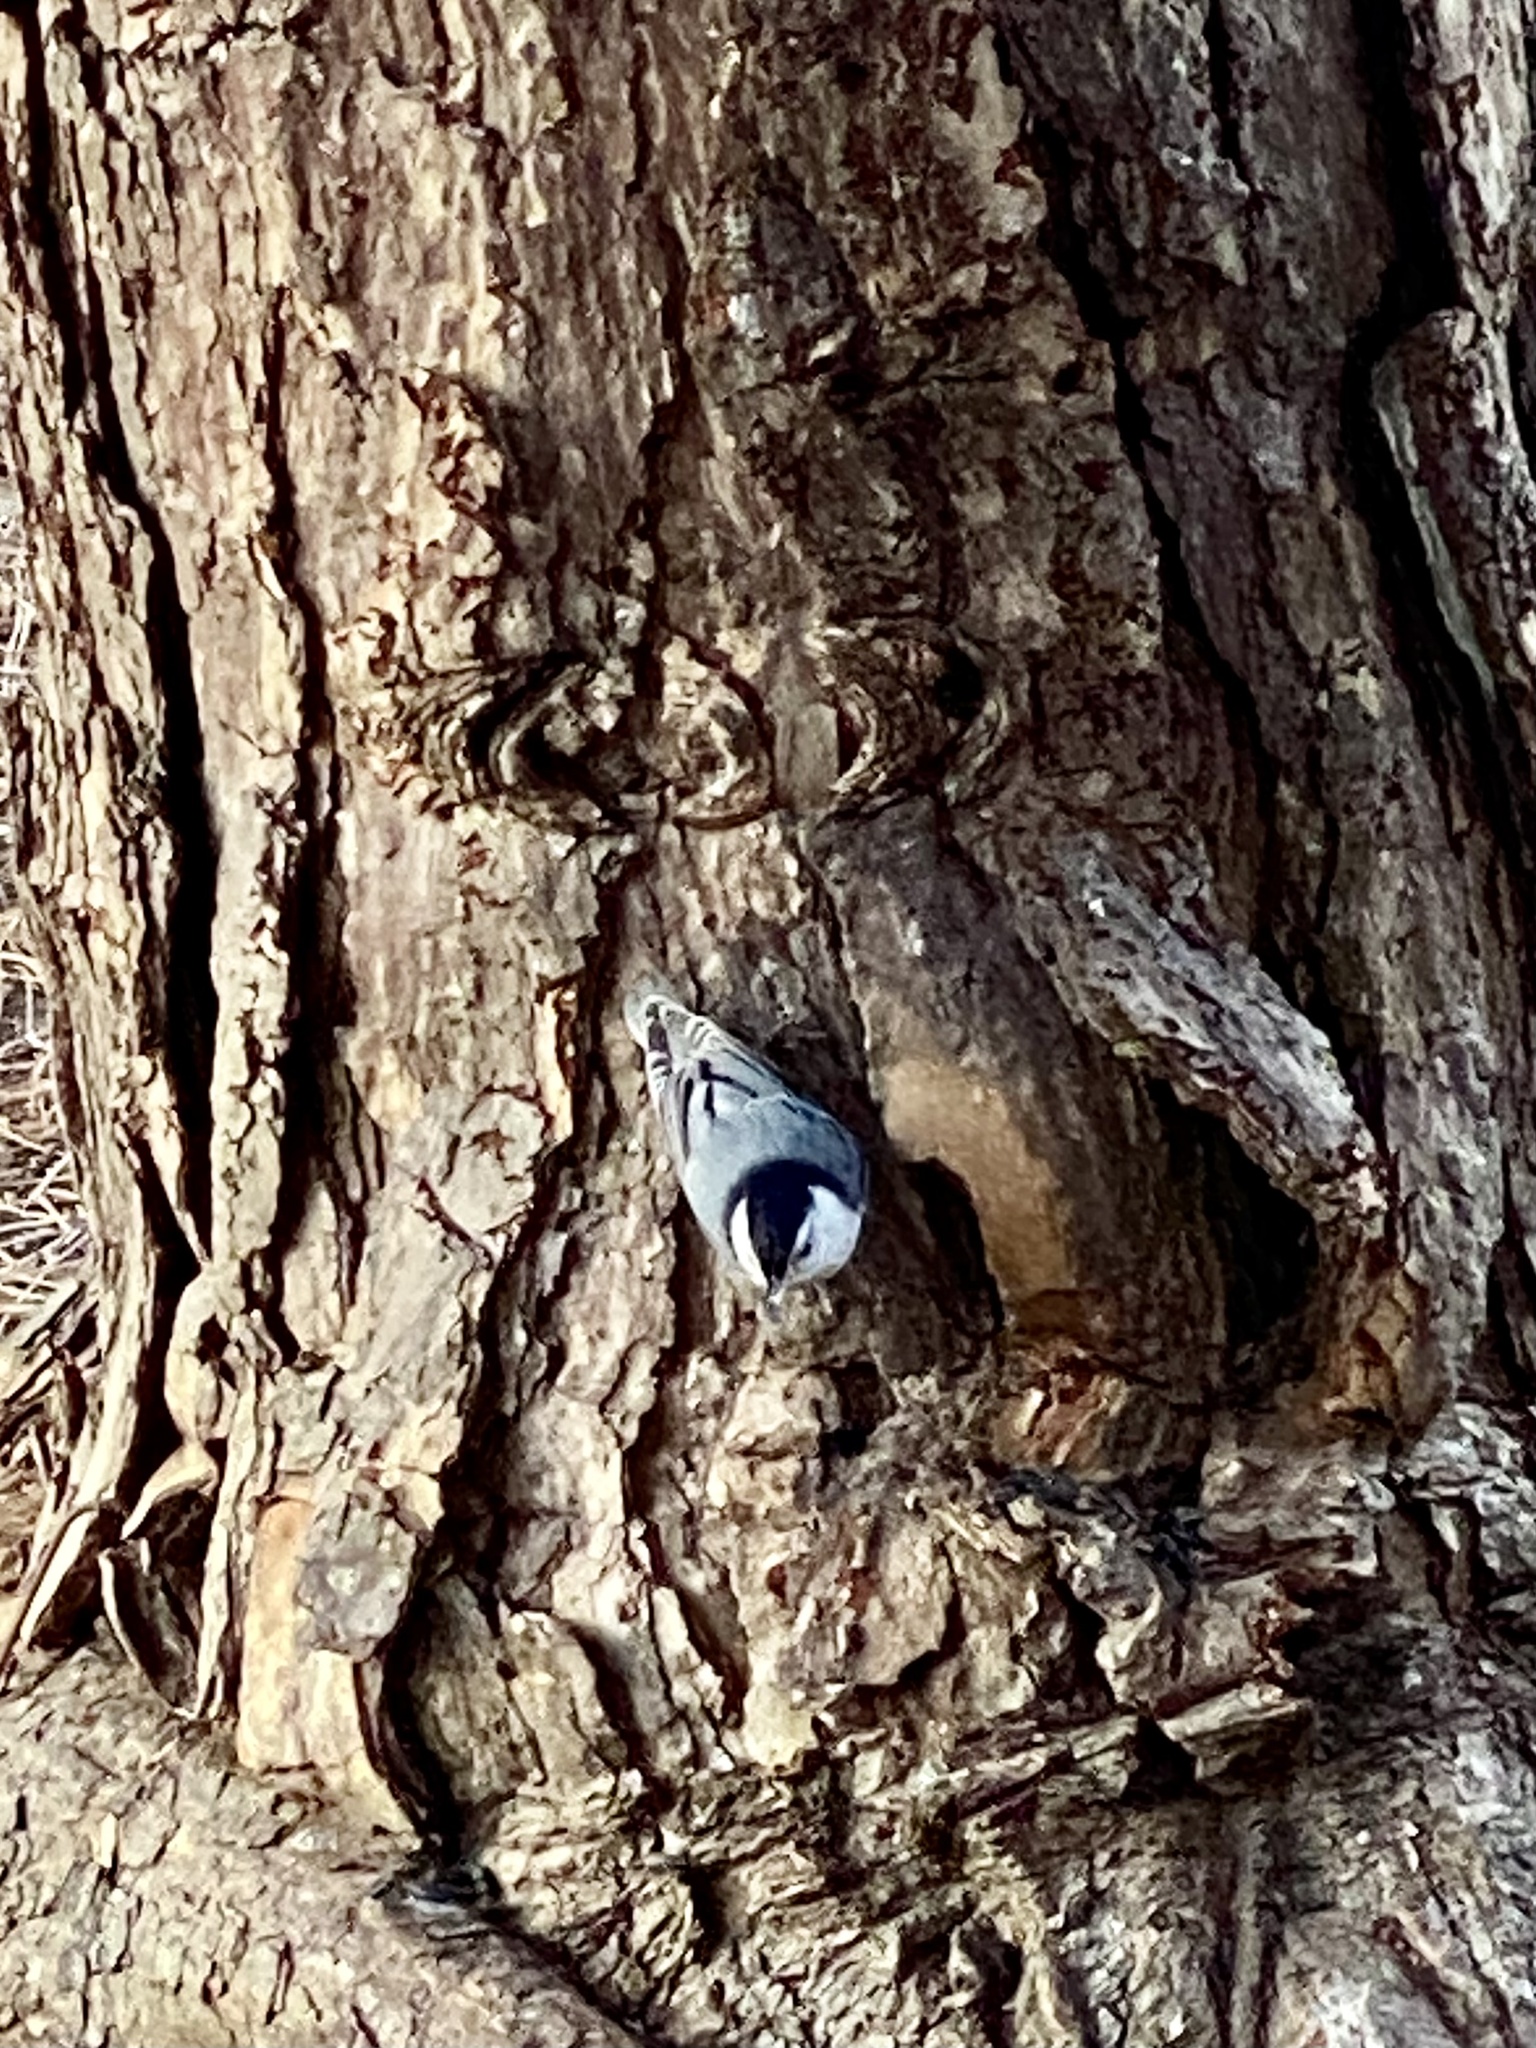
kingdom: Animalia
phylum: Chordata
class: Aves
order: Passeriformes
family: Sittidae
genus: Sitta
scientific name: Sitta carolinensis
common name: White-breasted nuthatch
